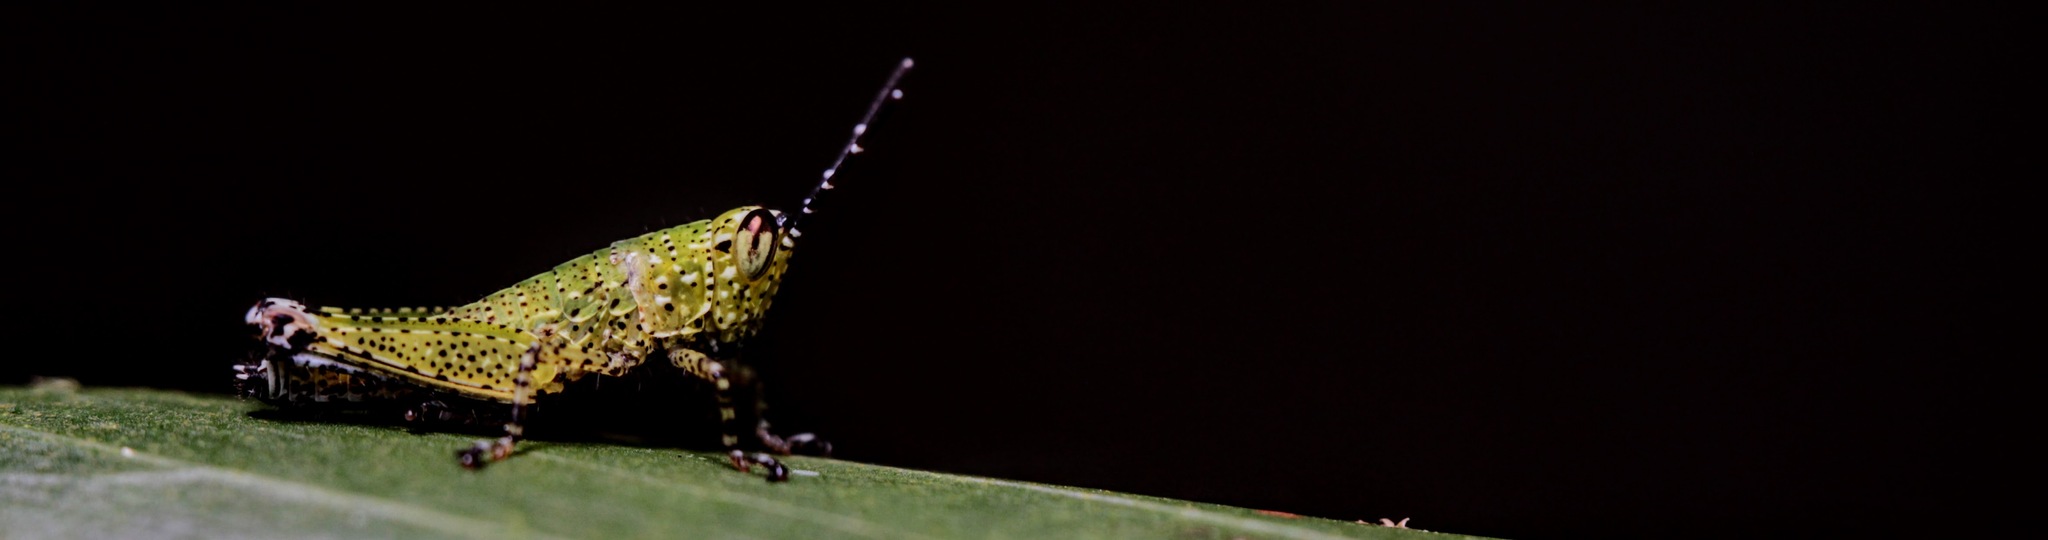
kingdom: Animalia
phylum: Arthropoda
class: Insecta
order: Orthoptera
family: Acrididae
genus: Xenocatantops
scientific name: Xenocatantops humile
